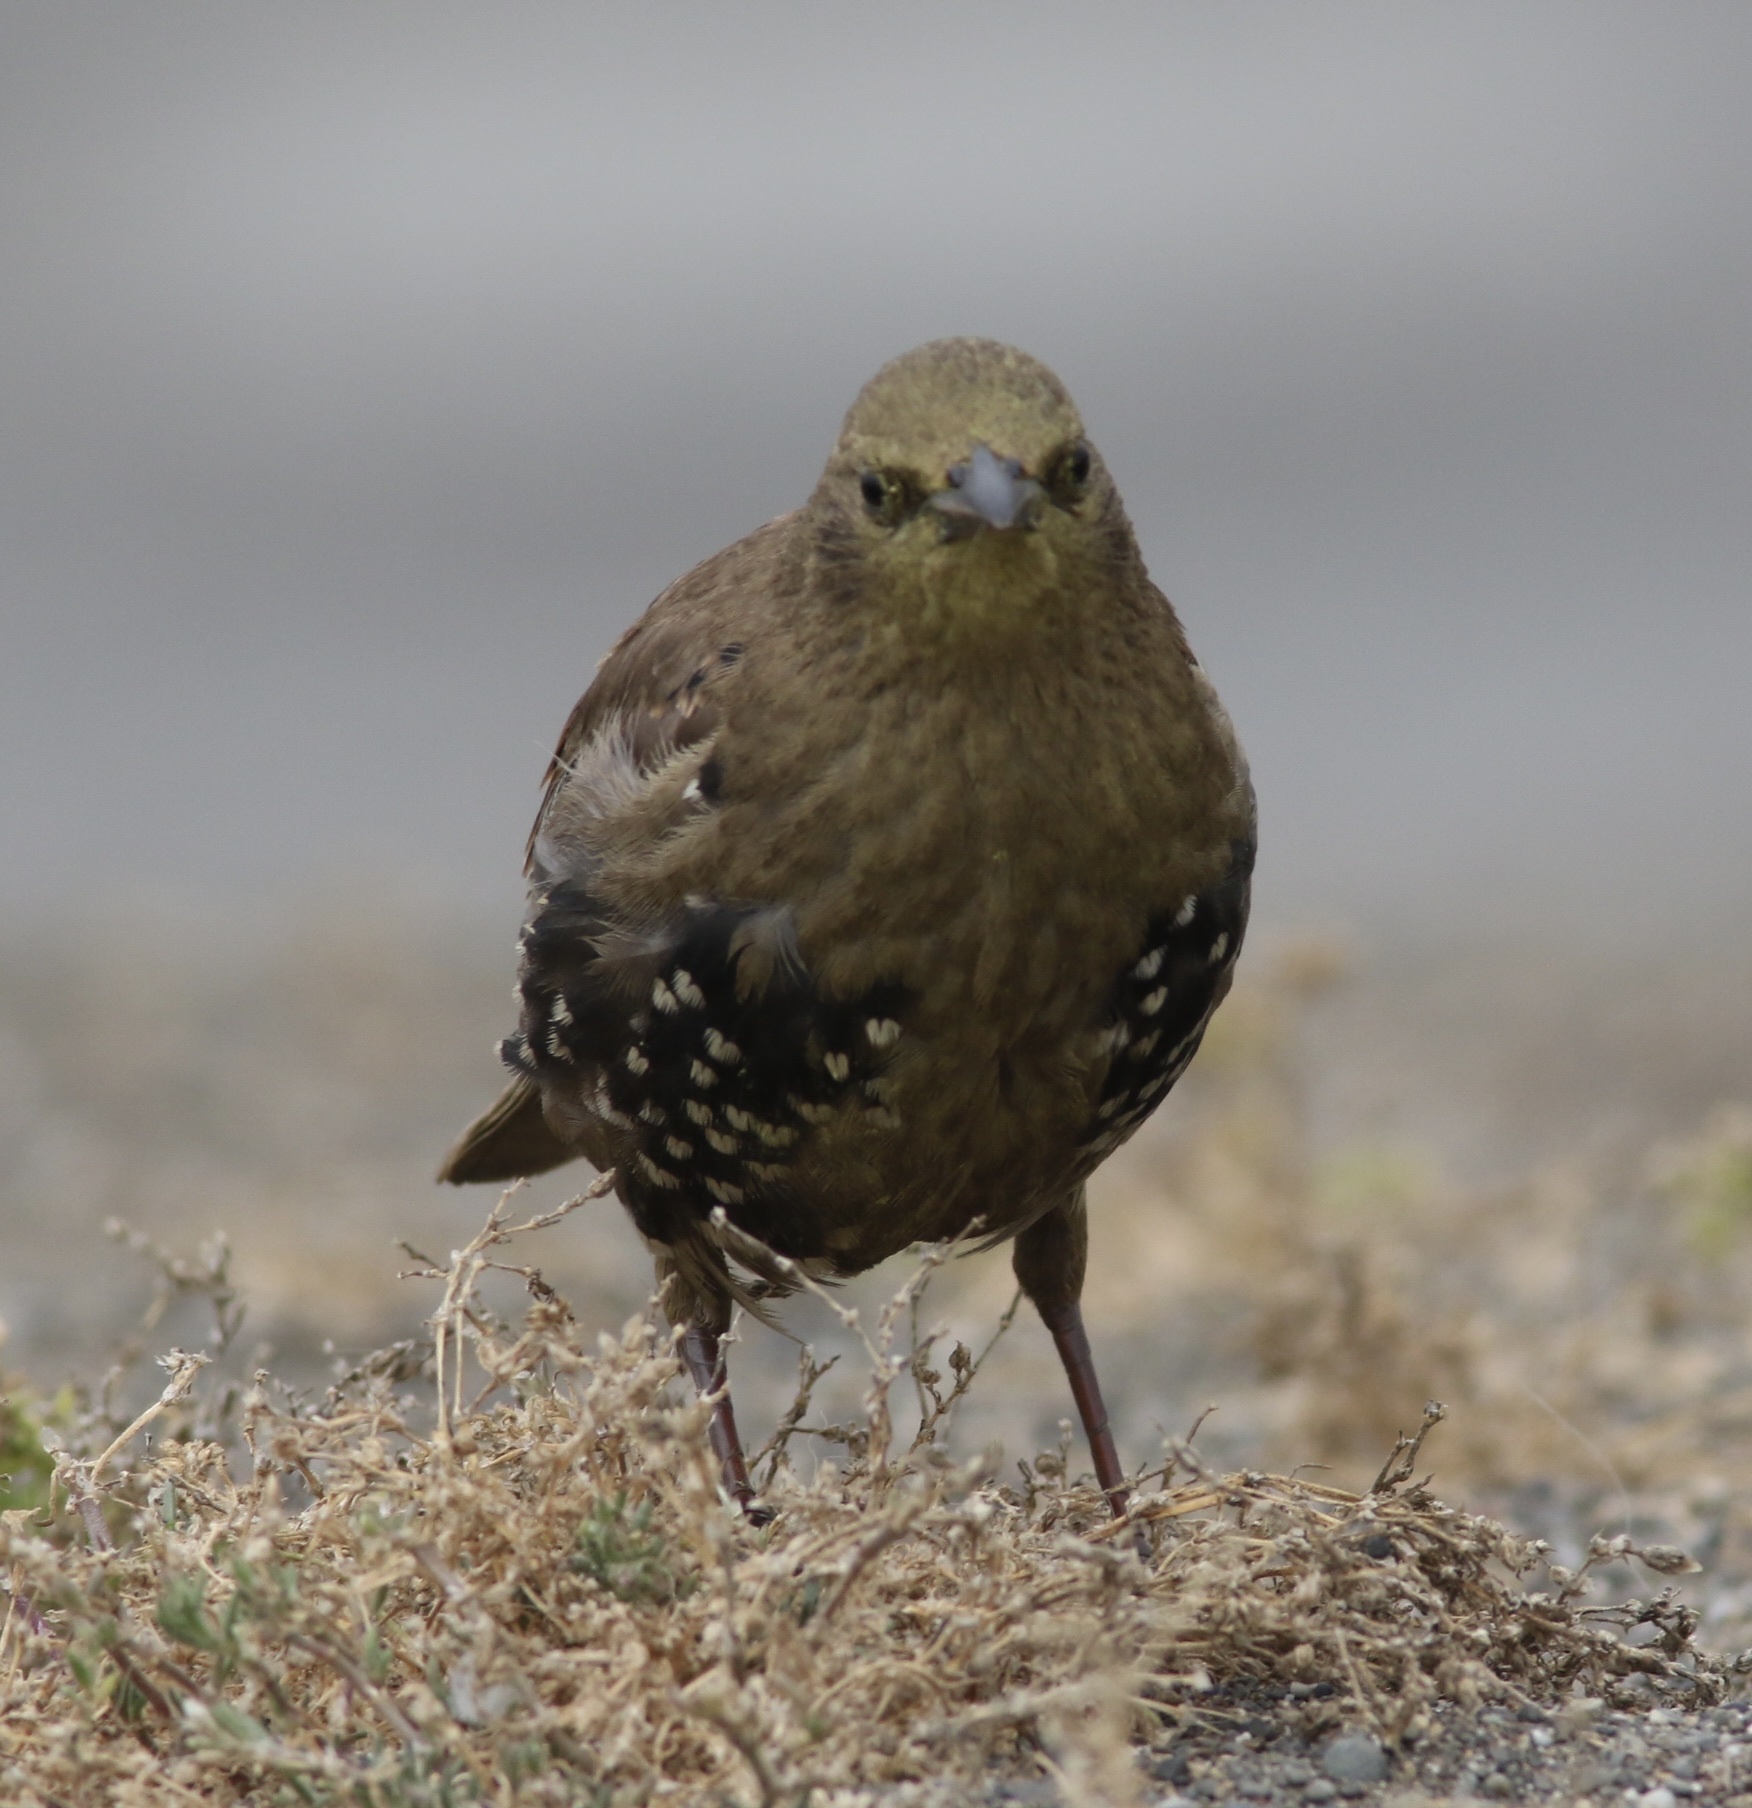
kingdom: Animalia
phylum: Chordata
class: Aves
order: Passeriformes
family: Sturnidae
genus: Sturnus
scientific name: Sturnus vulgaris
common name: Common starling
